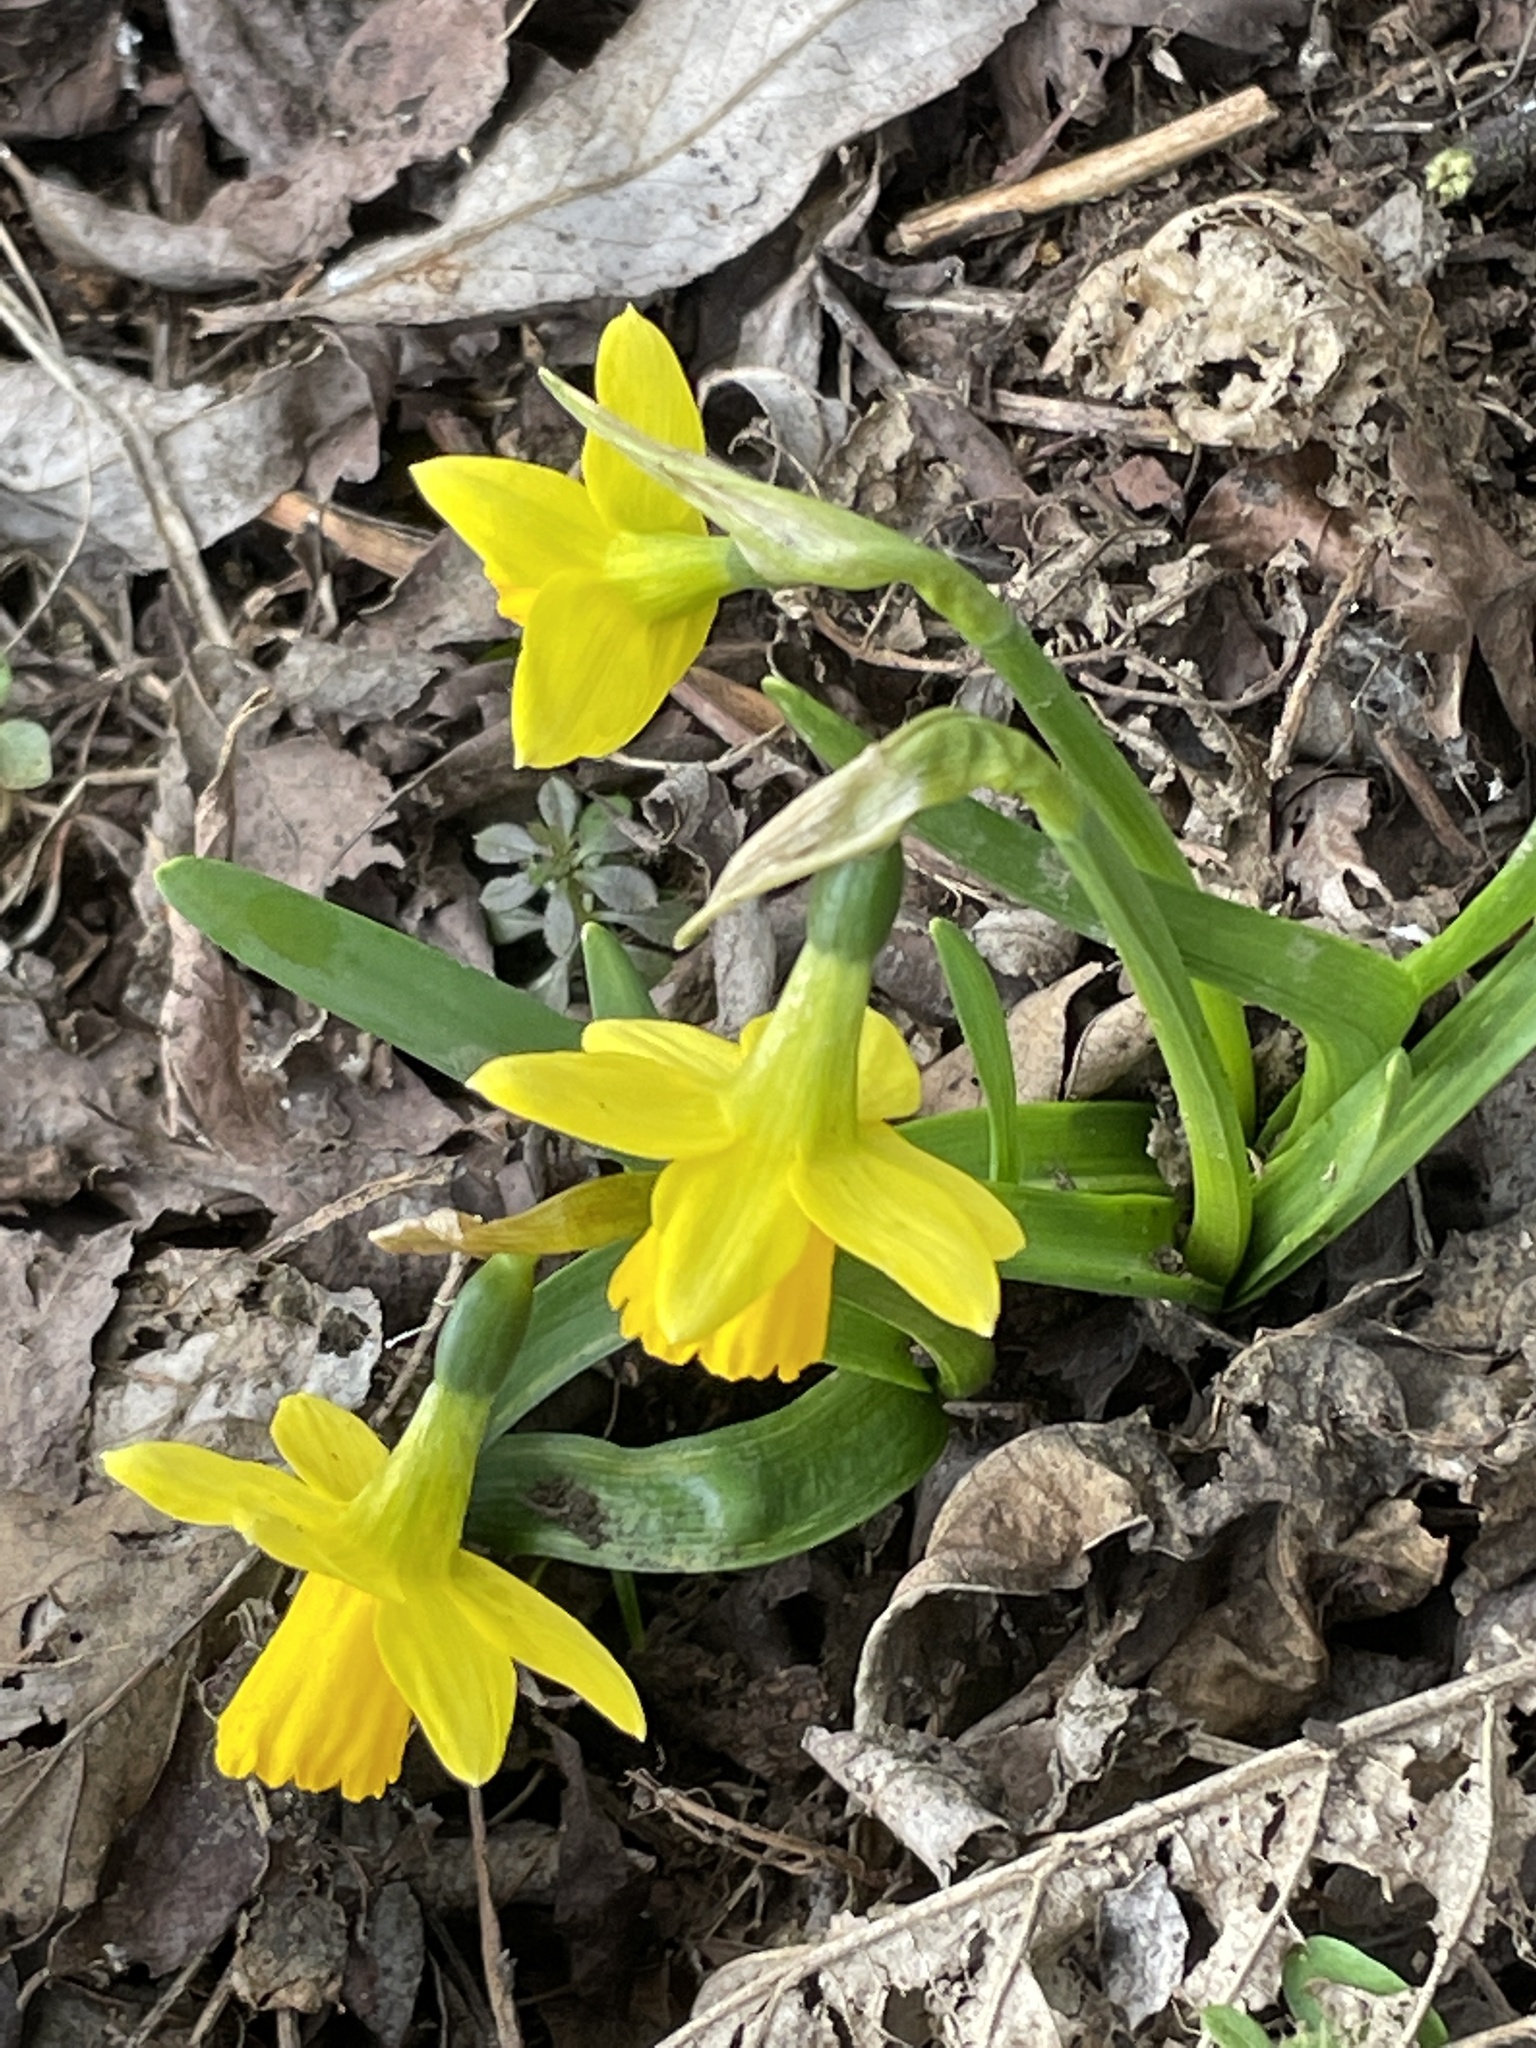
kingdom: Plantae
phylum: Tracheophyta
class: Liliopsida
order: Asparagales
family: Amaryllidaceae
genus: Narcissus
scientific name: Narcissus cyclazetta
